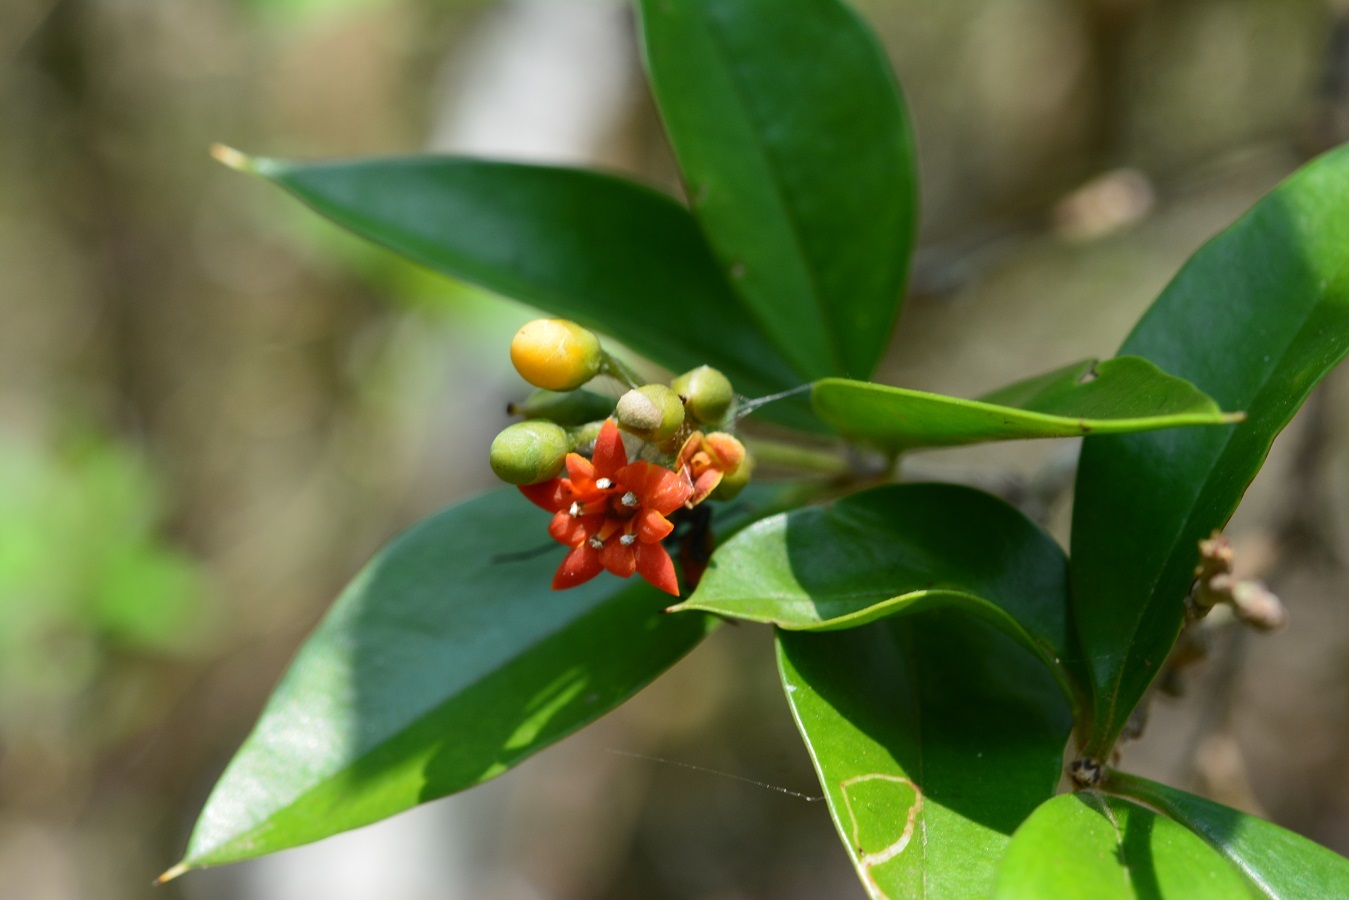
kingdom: Plantae
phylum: Tracheophyta
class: Magnoliopsida
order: Ericales
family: Primulaceae
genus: Bonellia
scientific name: Bonellia macrocarpa
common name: Primrose
